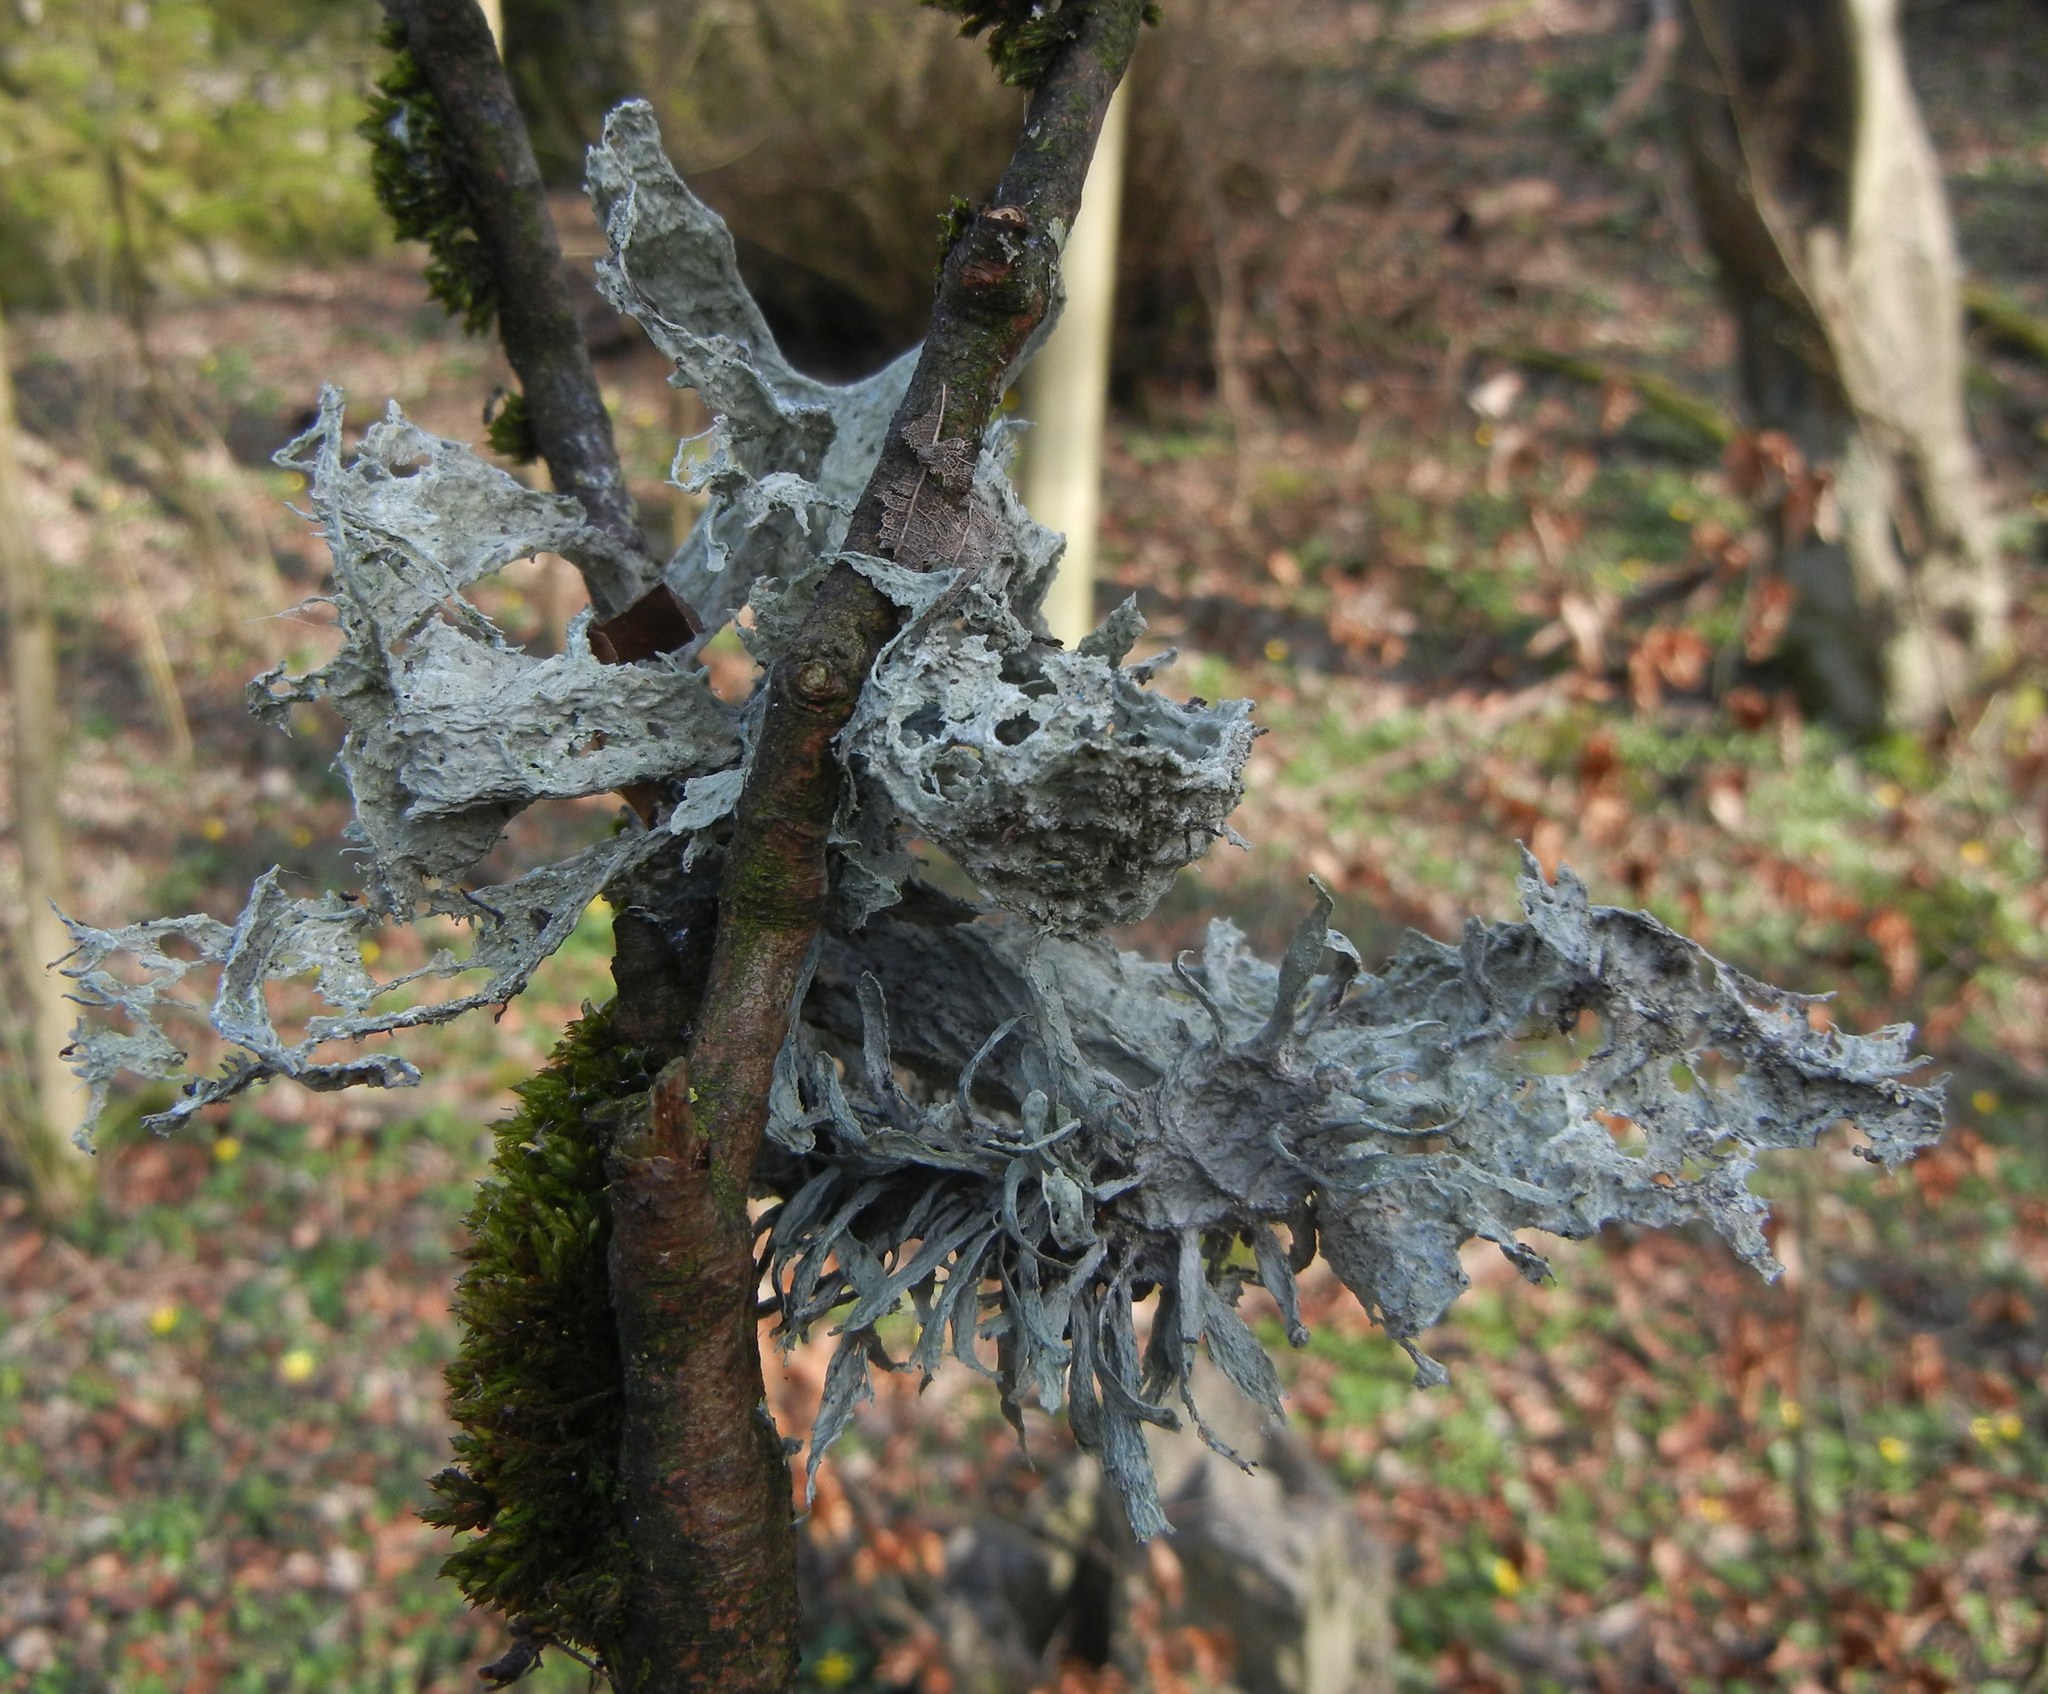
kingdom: Fungi
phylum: Ascomycota
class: Lecanoromycetes
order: Lecanorales
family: Ramalinaceae
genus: Ramalina
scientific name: Ramalina fraxinea
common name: Cartilage lichen
